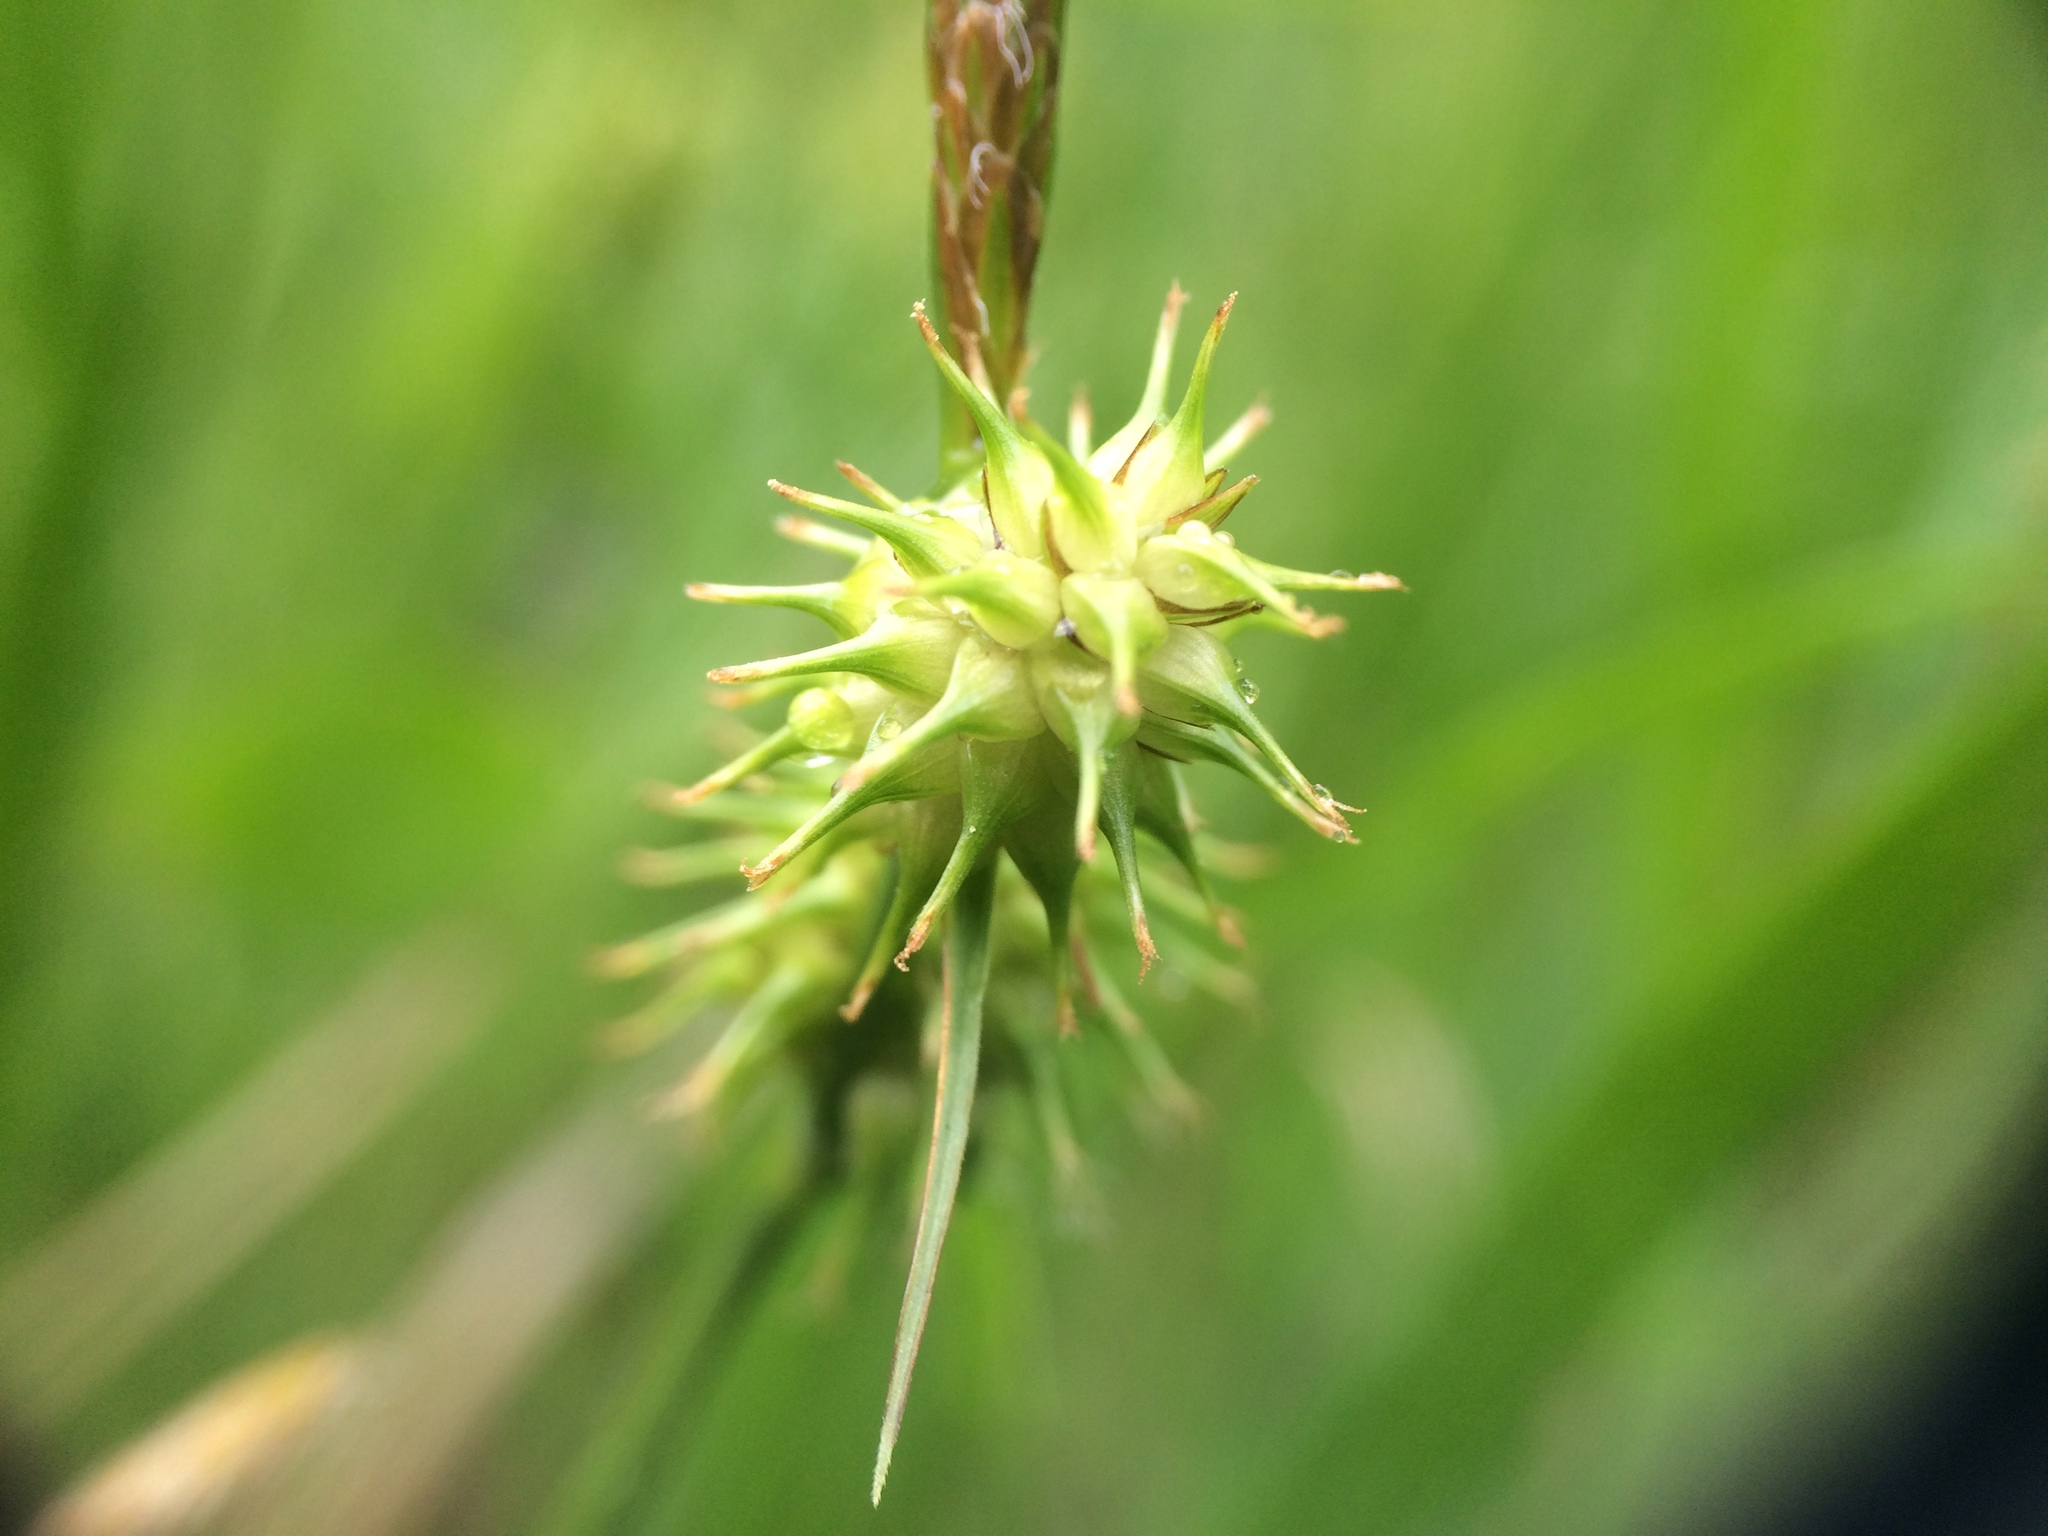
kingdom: Plantae
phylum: Tracheophyta
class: Liliopsida
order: Poales
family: Cyperaceae
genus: Carex
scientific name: Carex flava
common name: Large yellow-sedge
